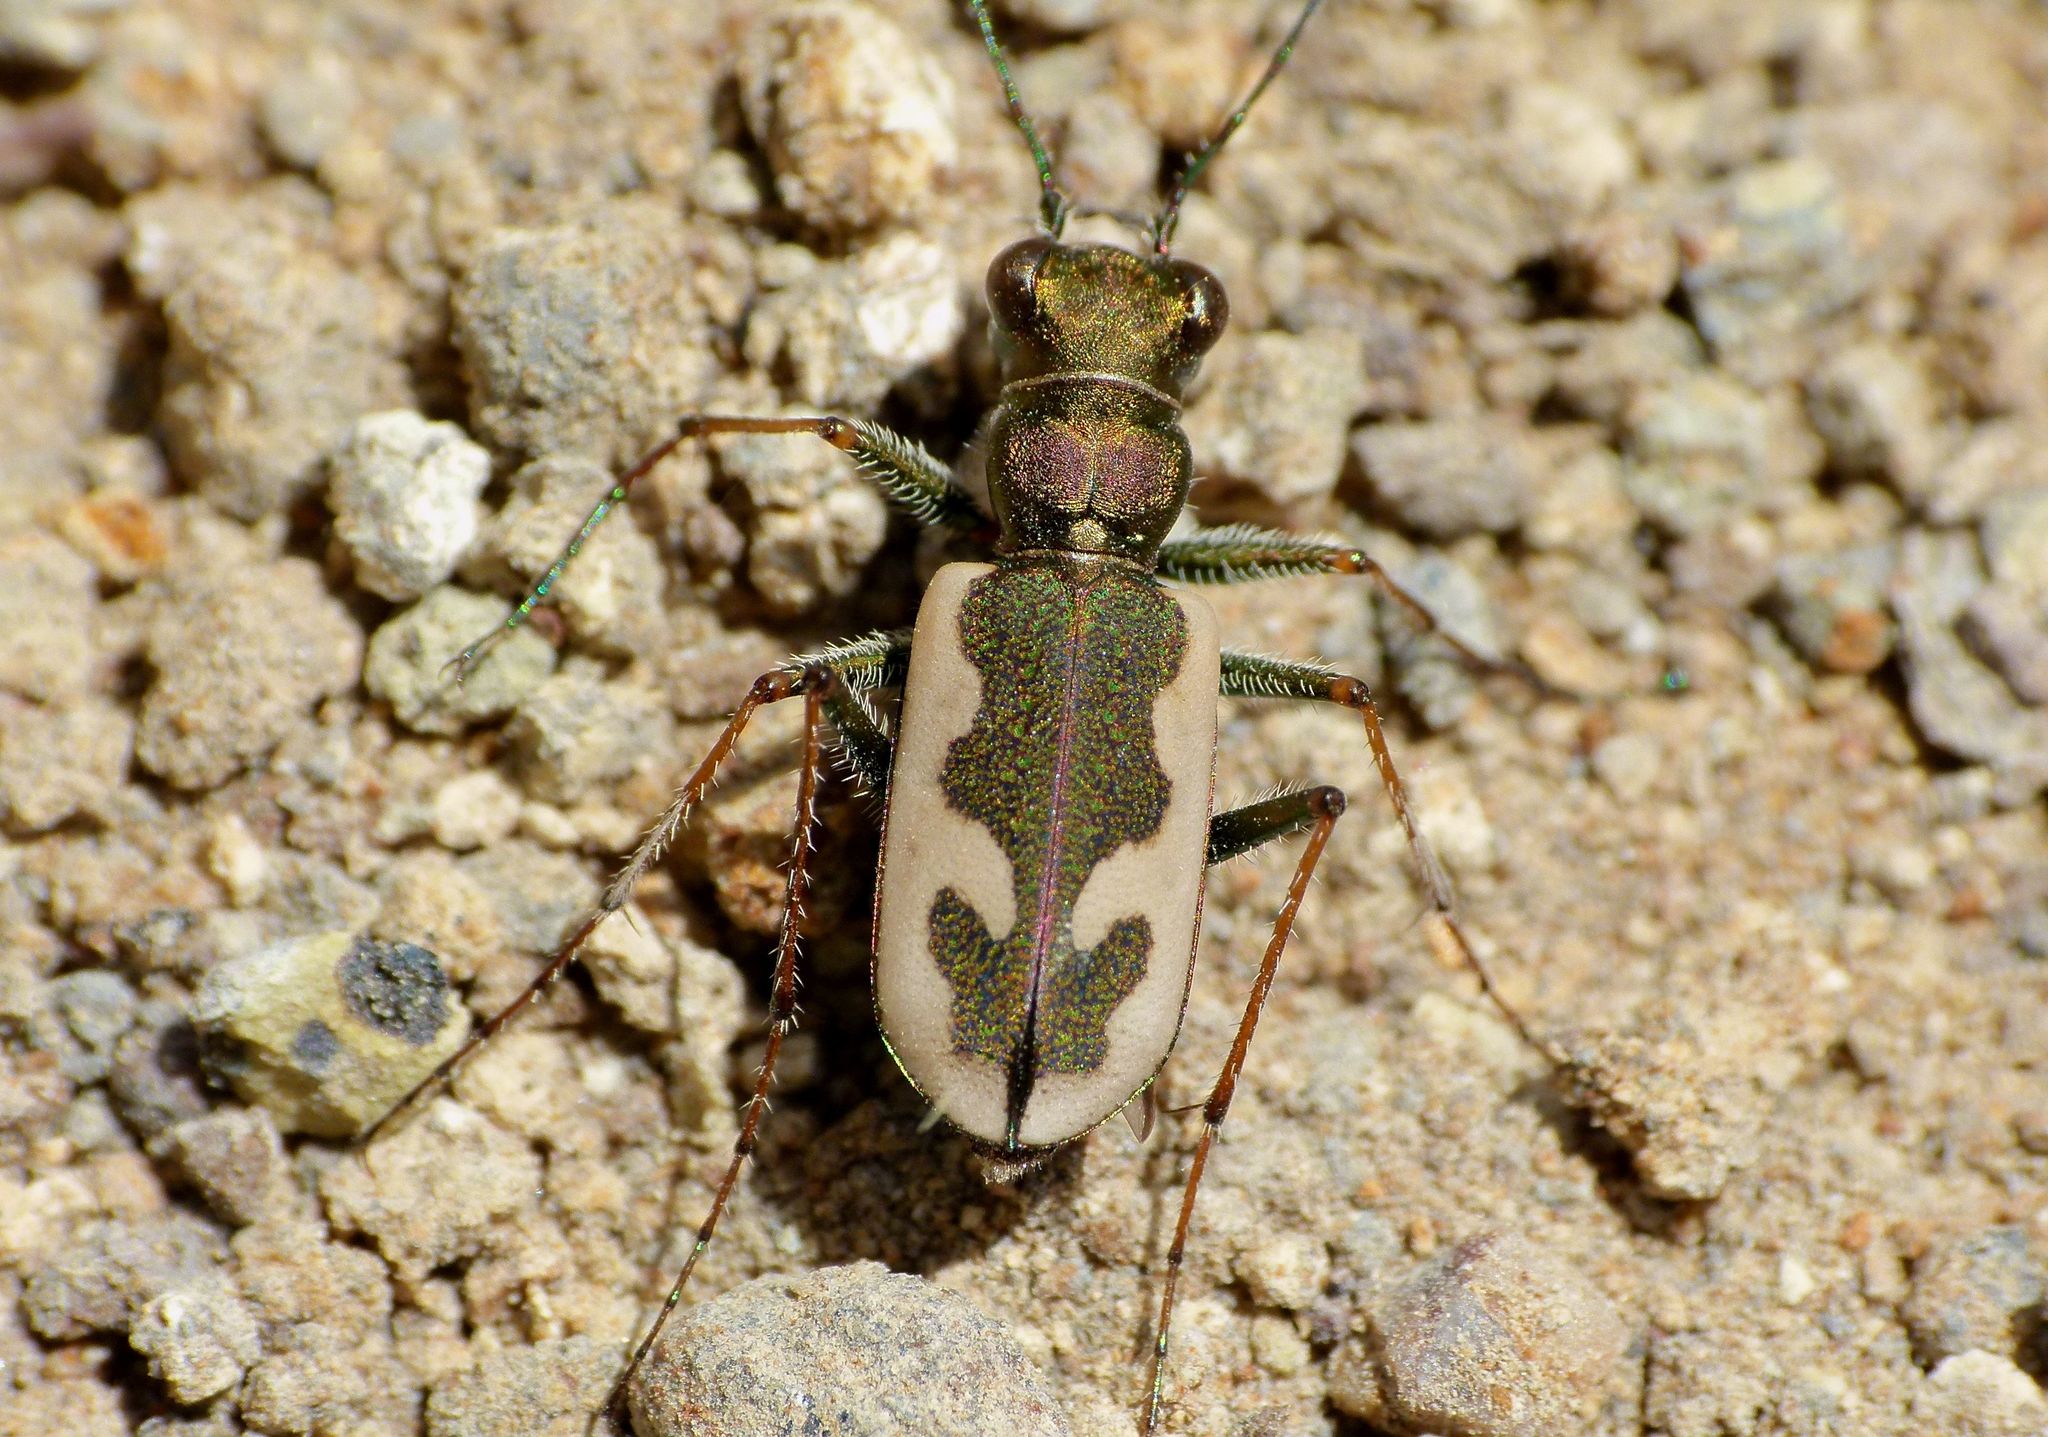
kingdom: Animalia
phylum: Arthropoda
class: Insecta
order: Coleoptera
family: Carabidae
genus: Neocicindela
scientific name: Neocicindela latecincta
